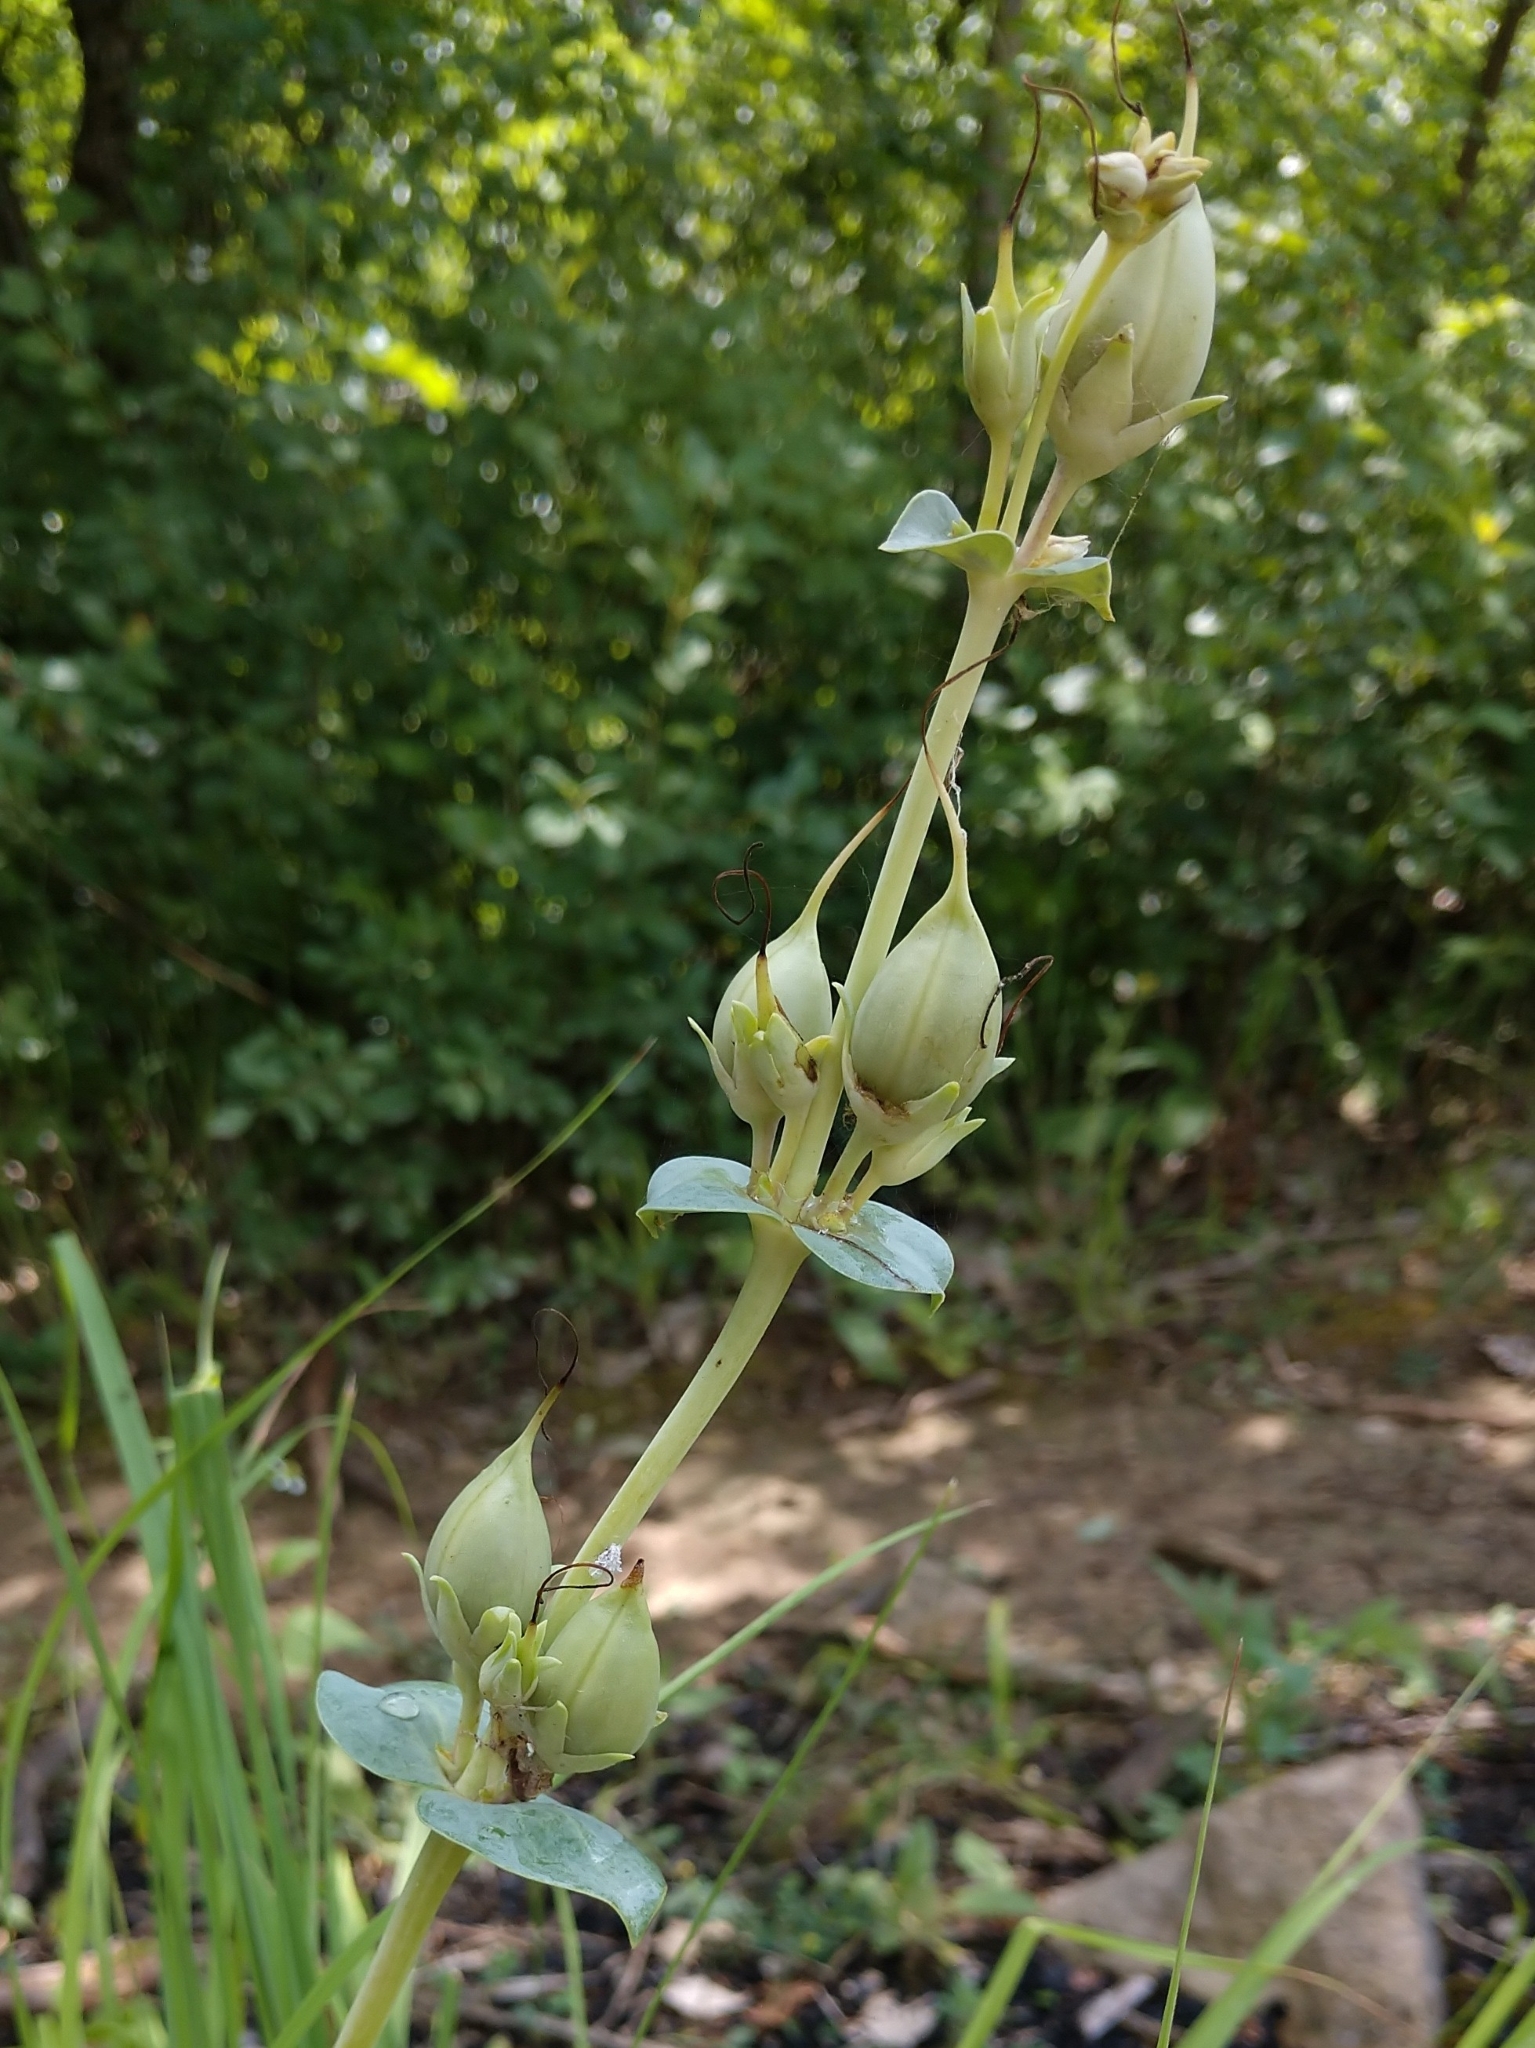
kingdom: Plantae
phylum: Tracheophyta
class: Magnoliopsida
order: Lamiales
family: Plantaginaceae
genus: Penstemon
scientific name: Penstemon
